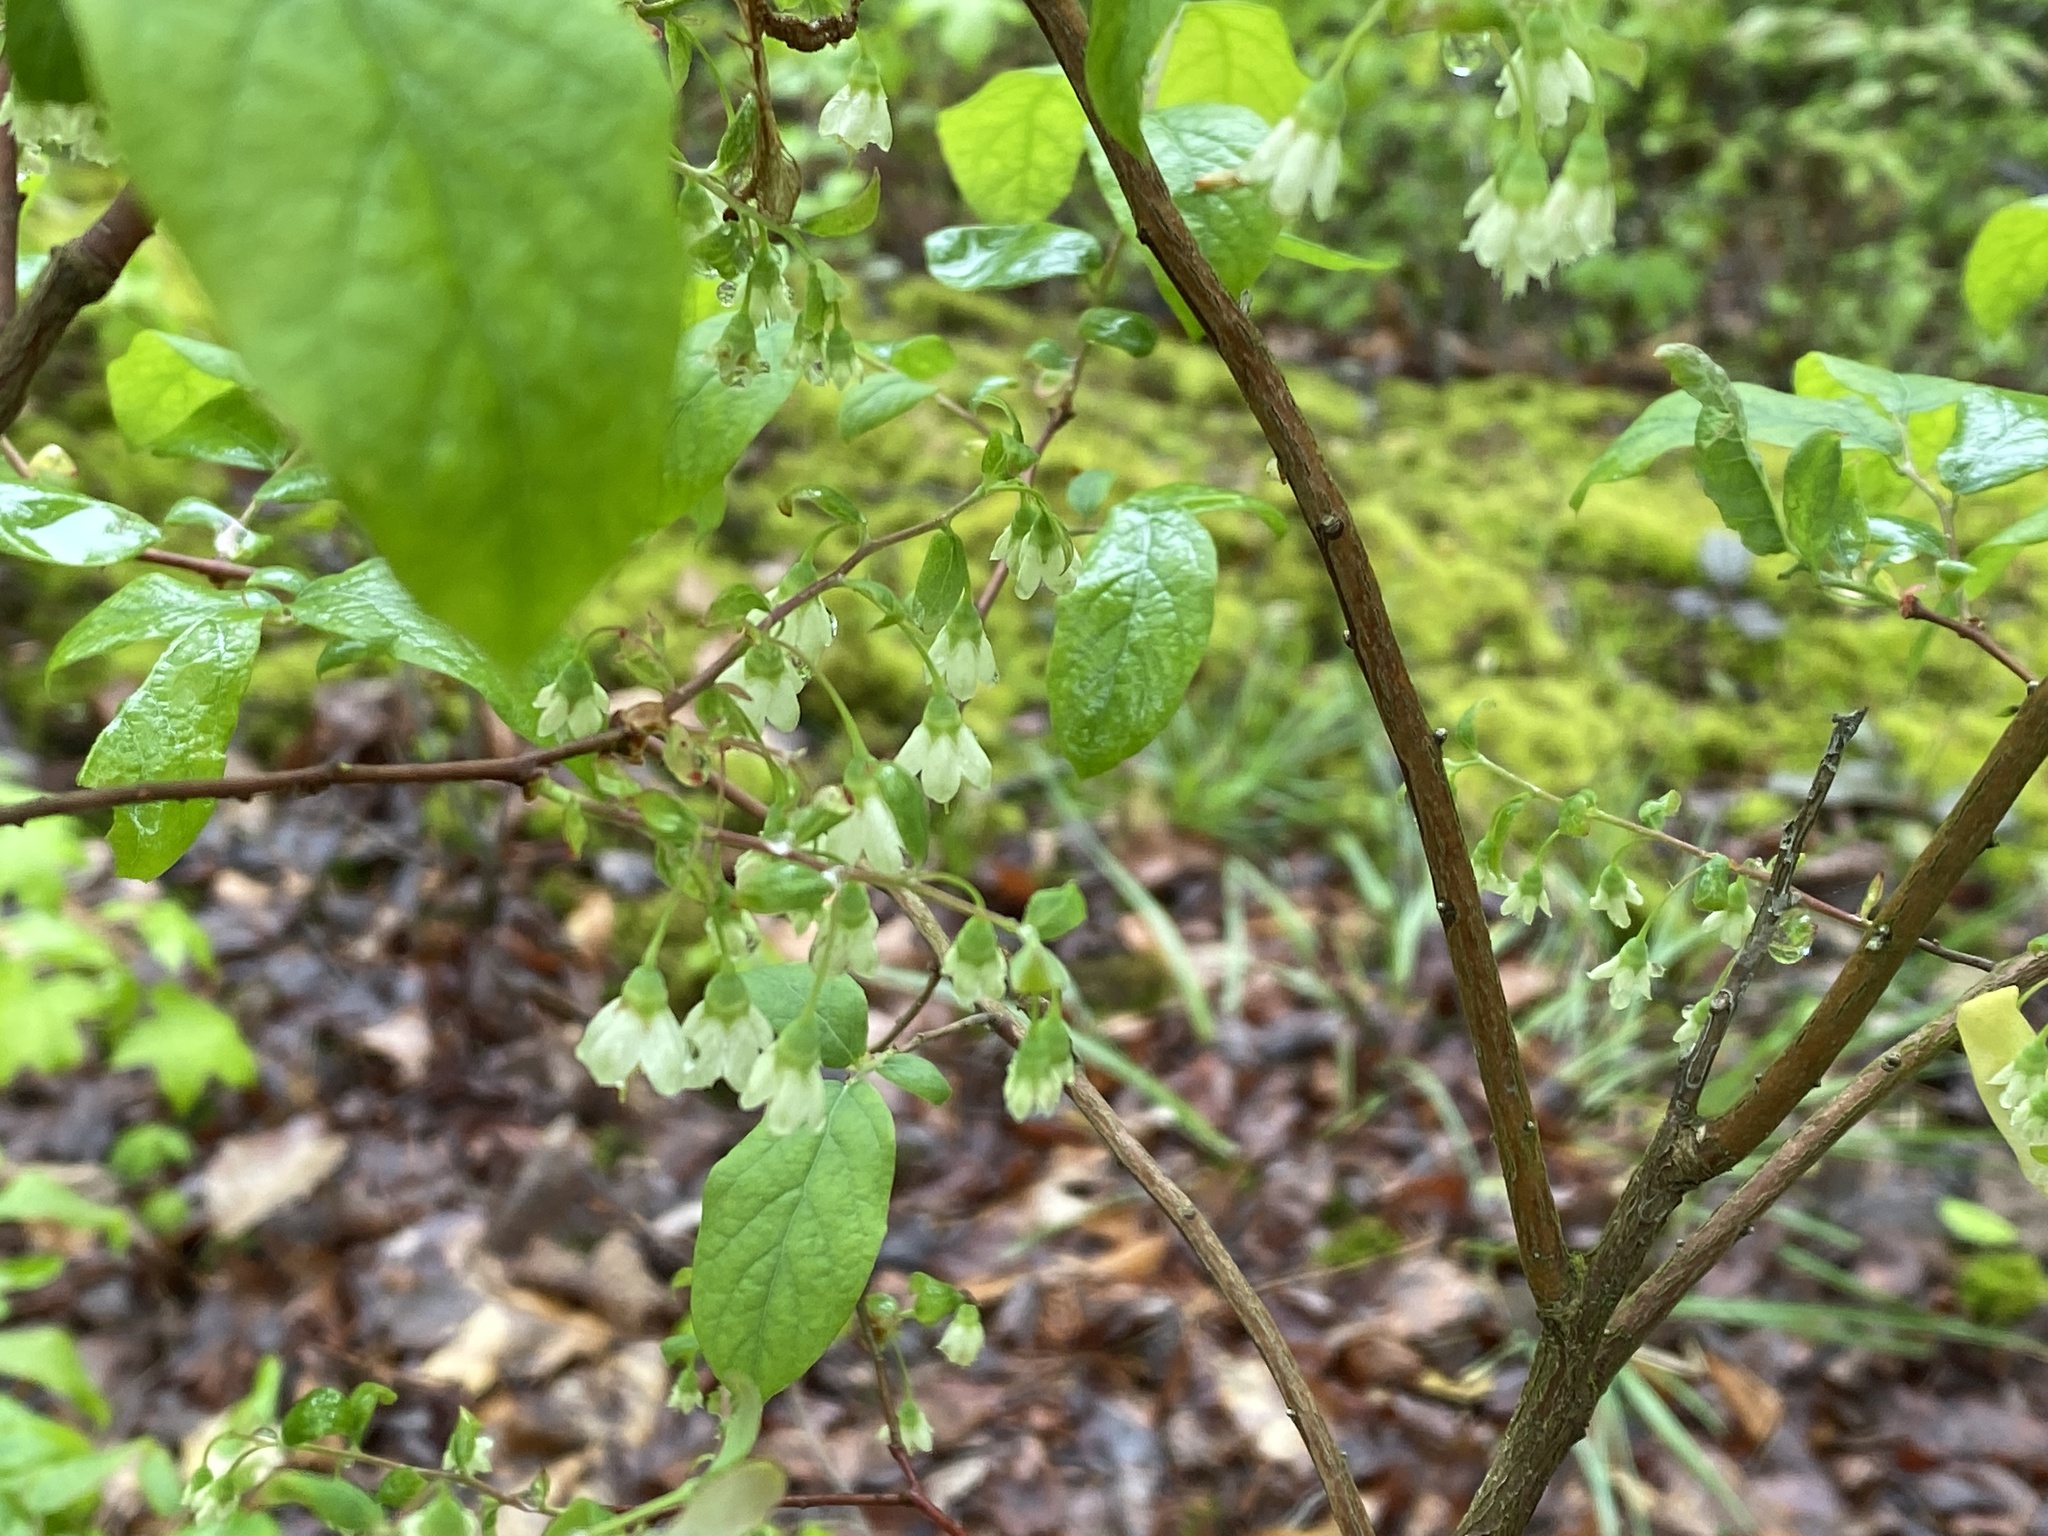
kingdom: Plantae
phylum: Tracheophyta
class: Magnoliopsida
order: Ericales
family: Ericaceae
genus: Vaccinium
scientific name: Vaccinium stamineum
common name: Deerberry
